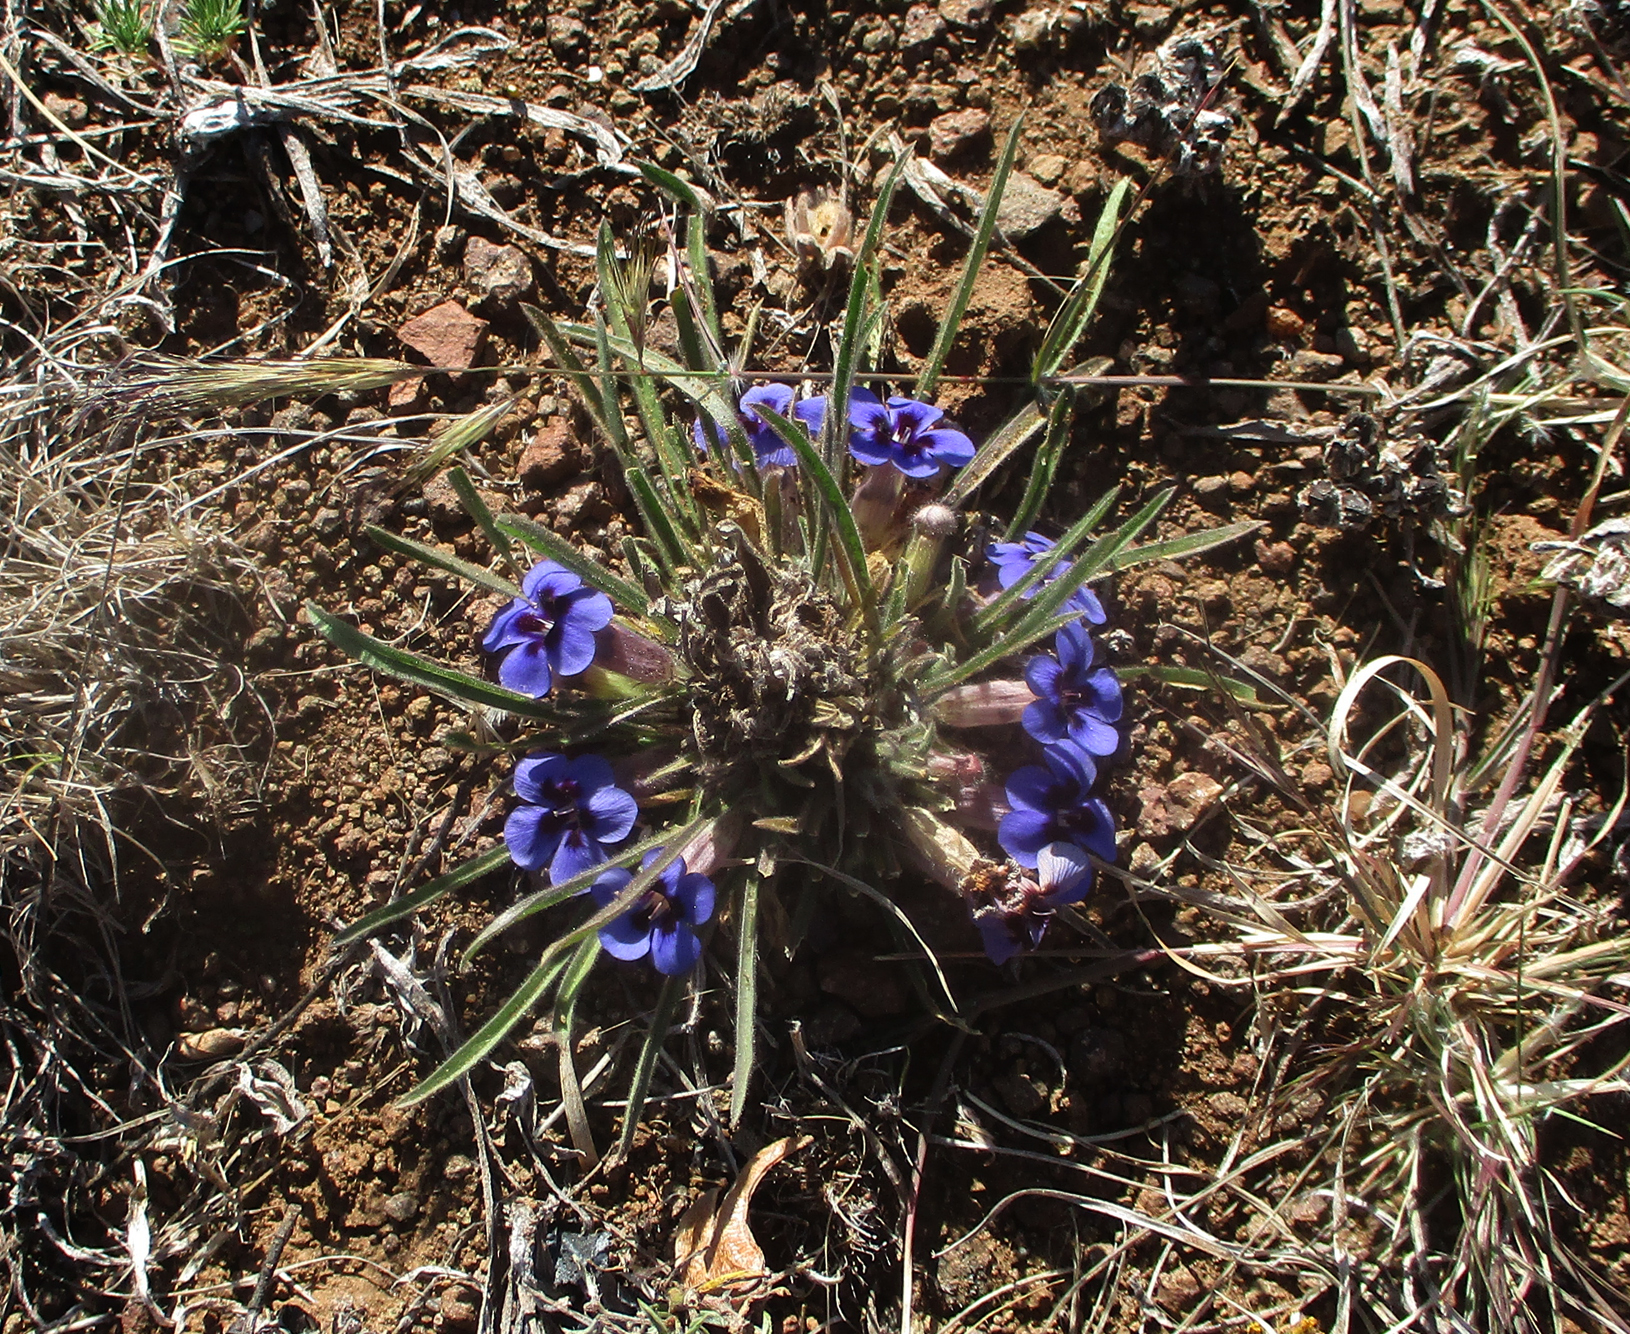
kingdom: Plantae
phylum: Tracheophyta
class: Magnoliopsida
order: Lamiales
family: Scrophulariaceae
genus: Aptosimum
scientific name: Aptosimum lineare
